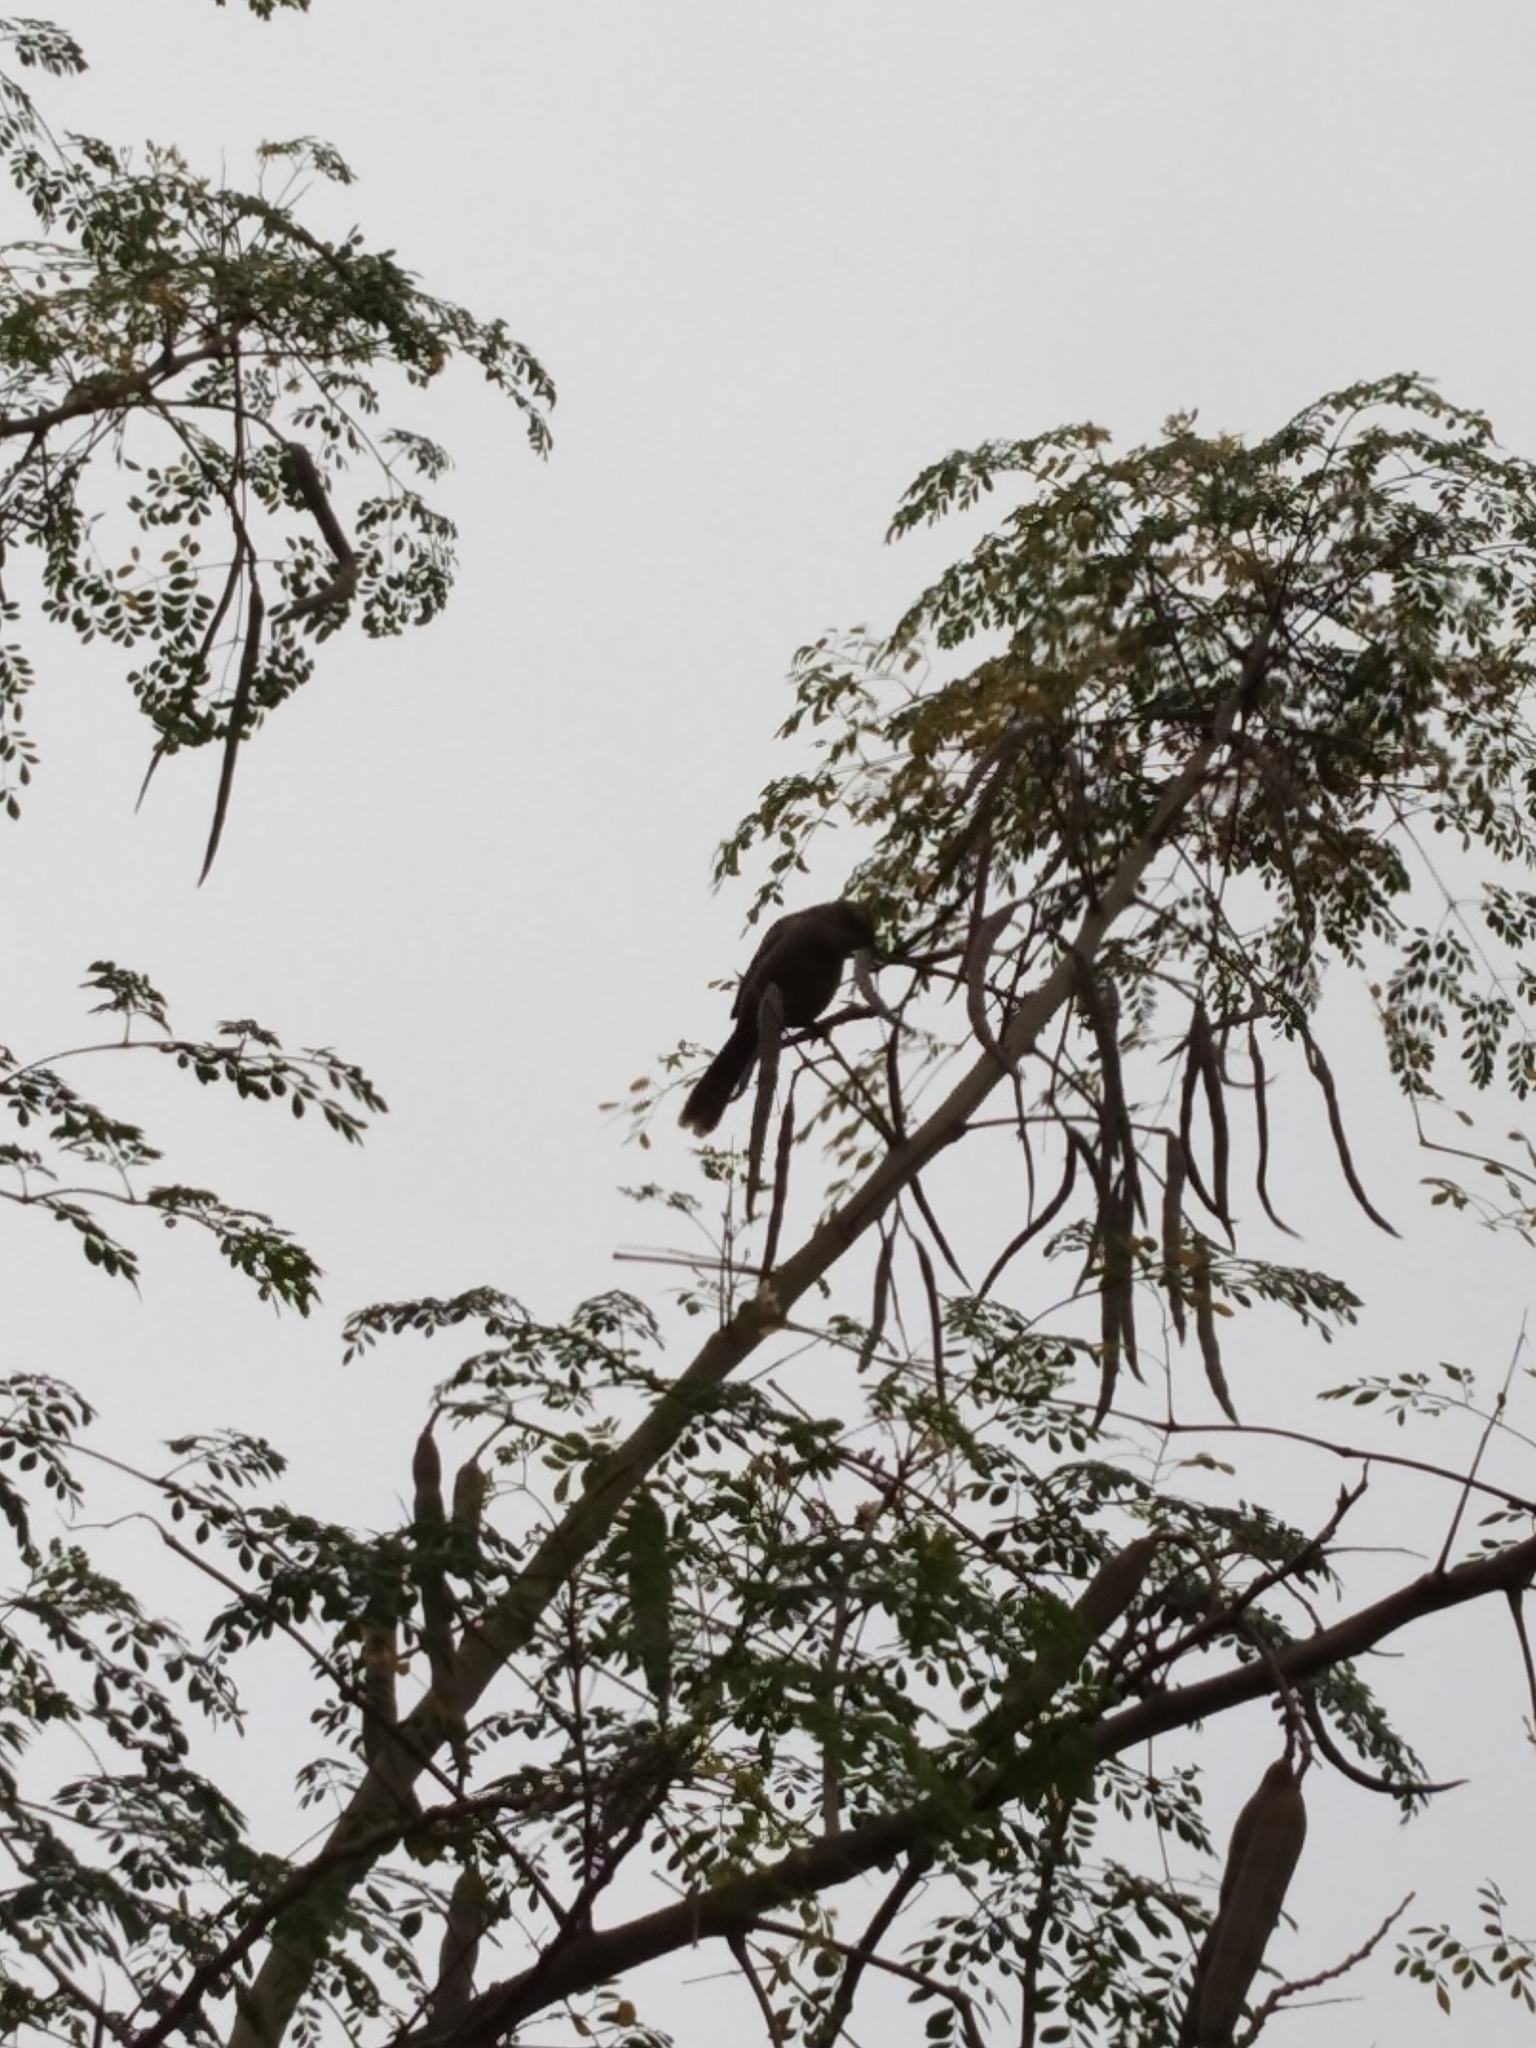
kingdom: Animalia
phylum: Chordata
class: Aves
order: Passeriformes
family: Mimidae
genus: Mimus
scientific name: Mimus saturninus
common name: Chalk-browed mockingbird
